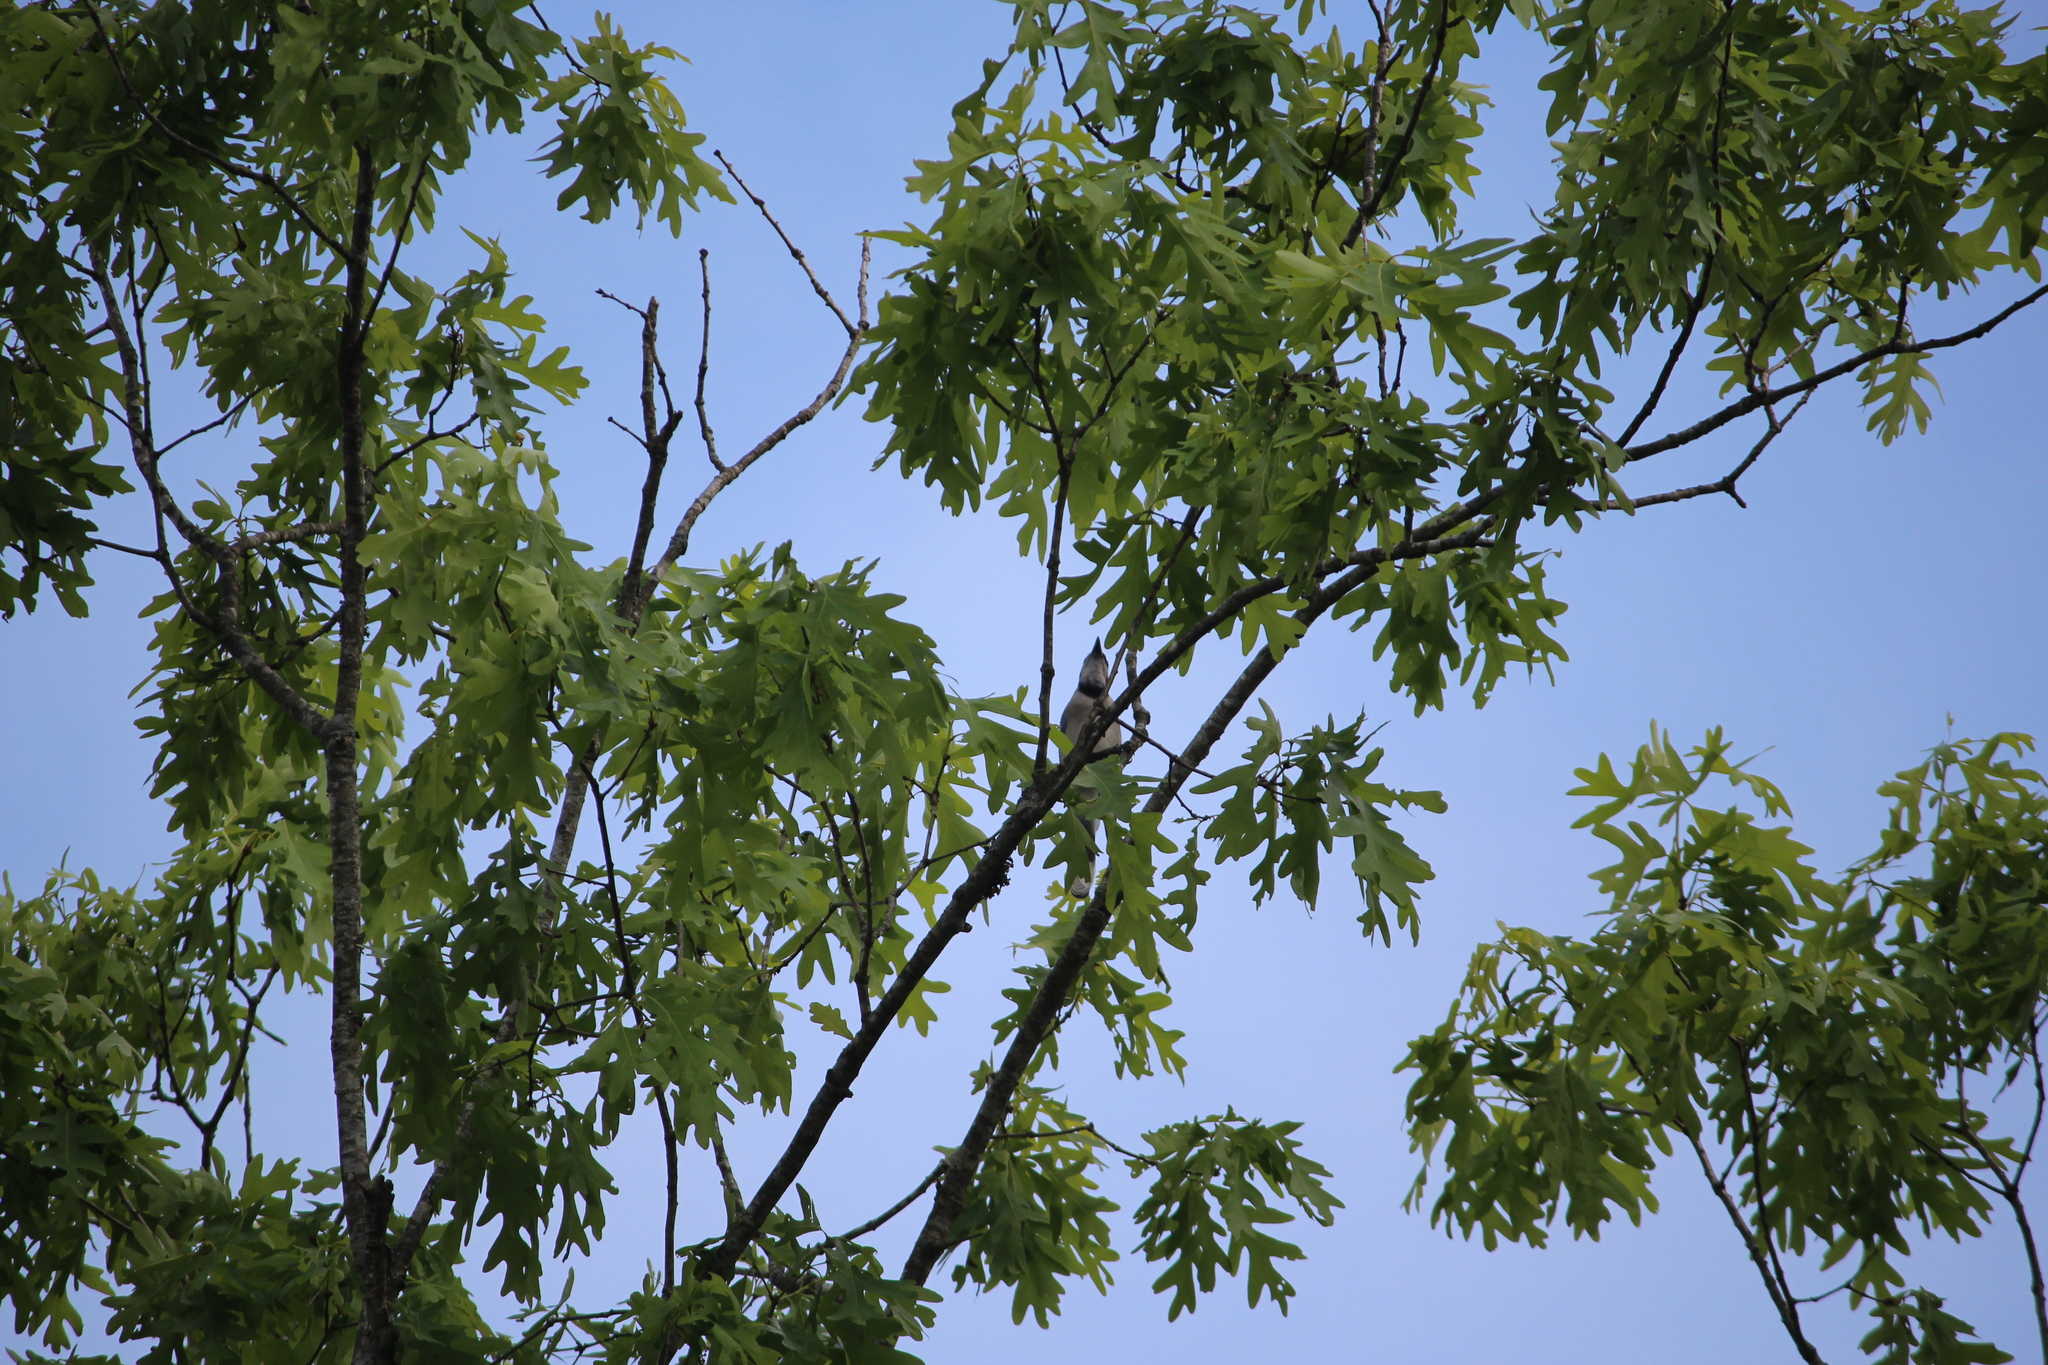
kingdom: Plantae
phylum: Tracheophyta
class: Magnoliopsida
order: Fagales
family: Fagaceae
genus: Quercus
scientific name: Quercus alba
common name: White oak
